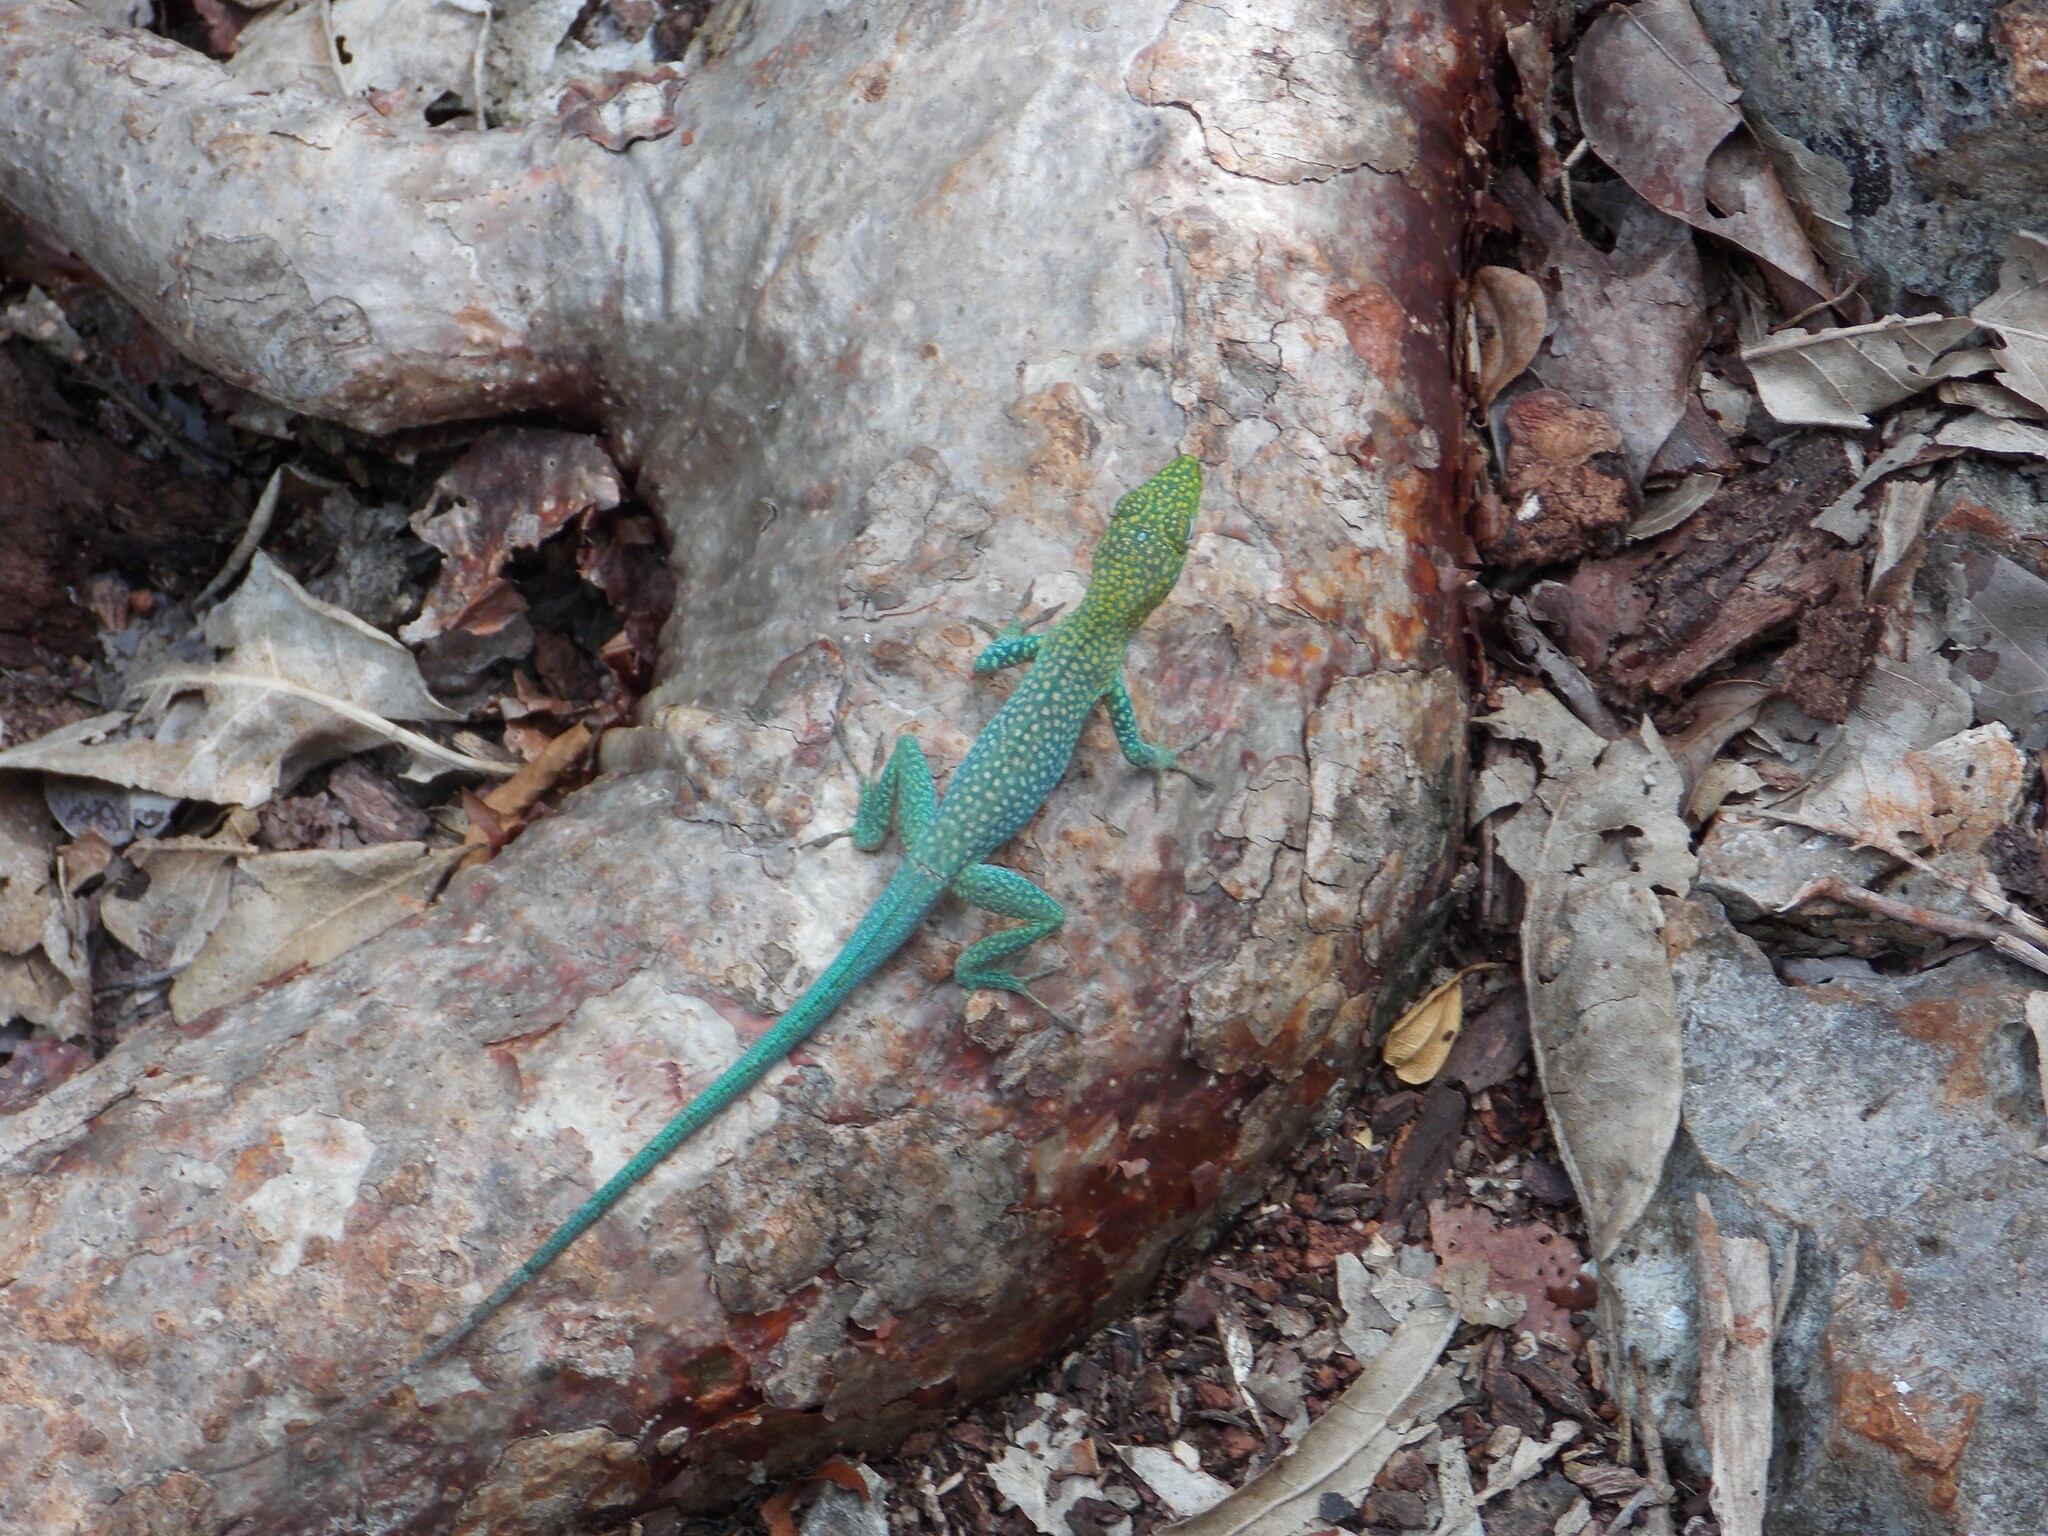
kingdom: Animalia
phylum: Chordata
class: Squamata
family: Dactyloidae
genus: Anolis
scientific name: Anolis conspersus
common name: Grand cayman anole
